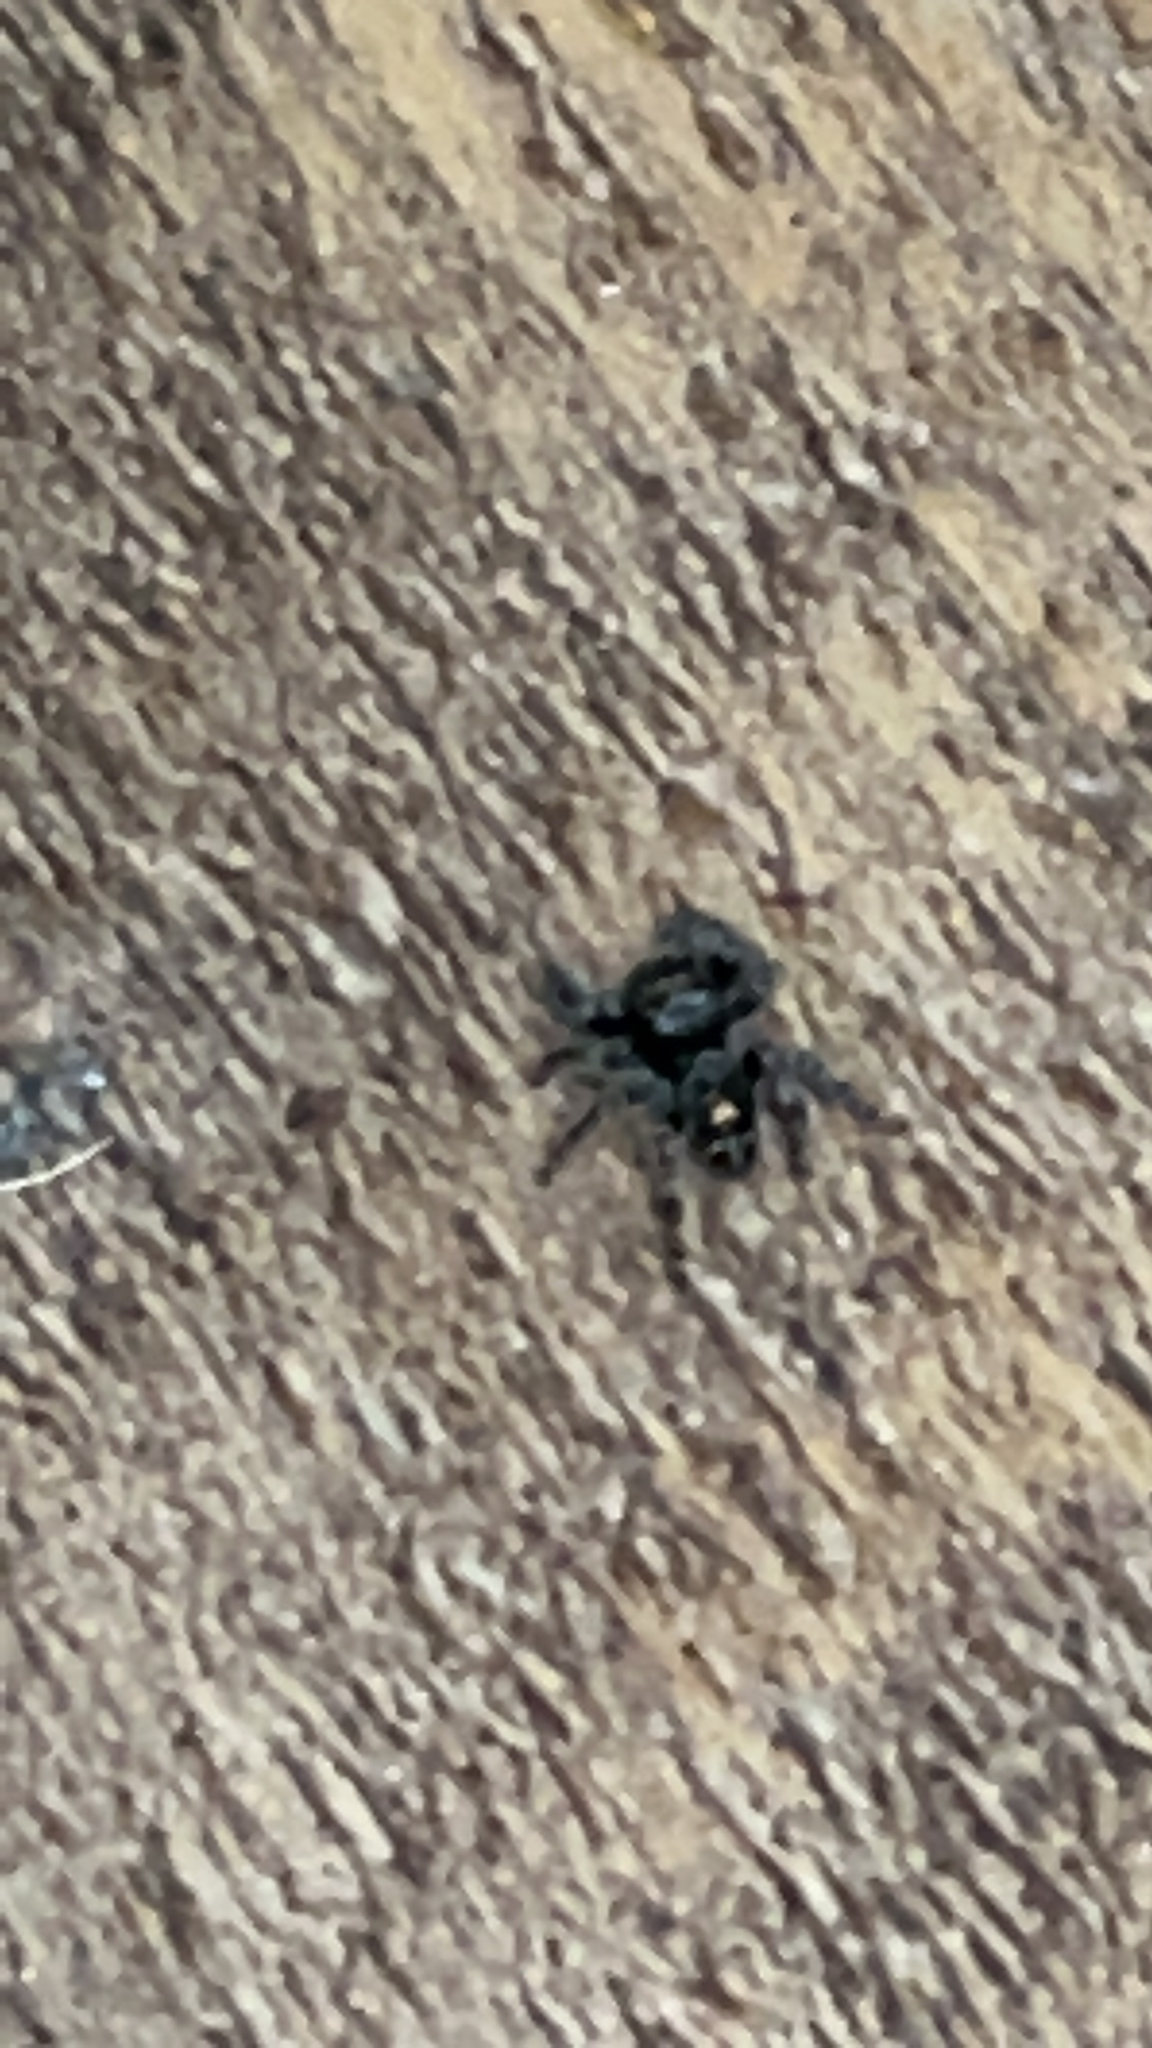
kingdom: Animalia
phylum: Arthropoda
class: Arachnida
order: Araneae
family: Salticidae
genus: Phidippus
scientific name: Phidippus audax
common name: Bold jumper
